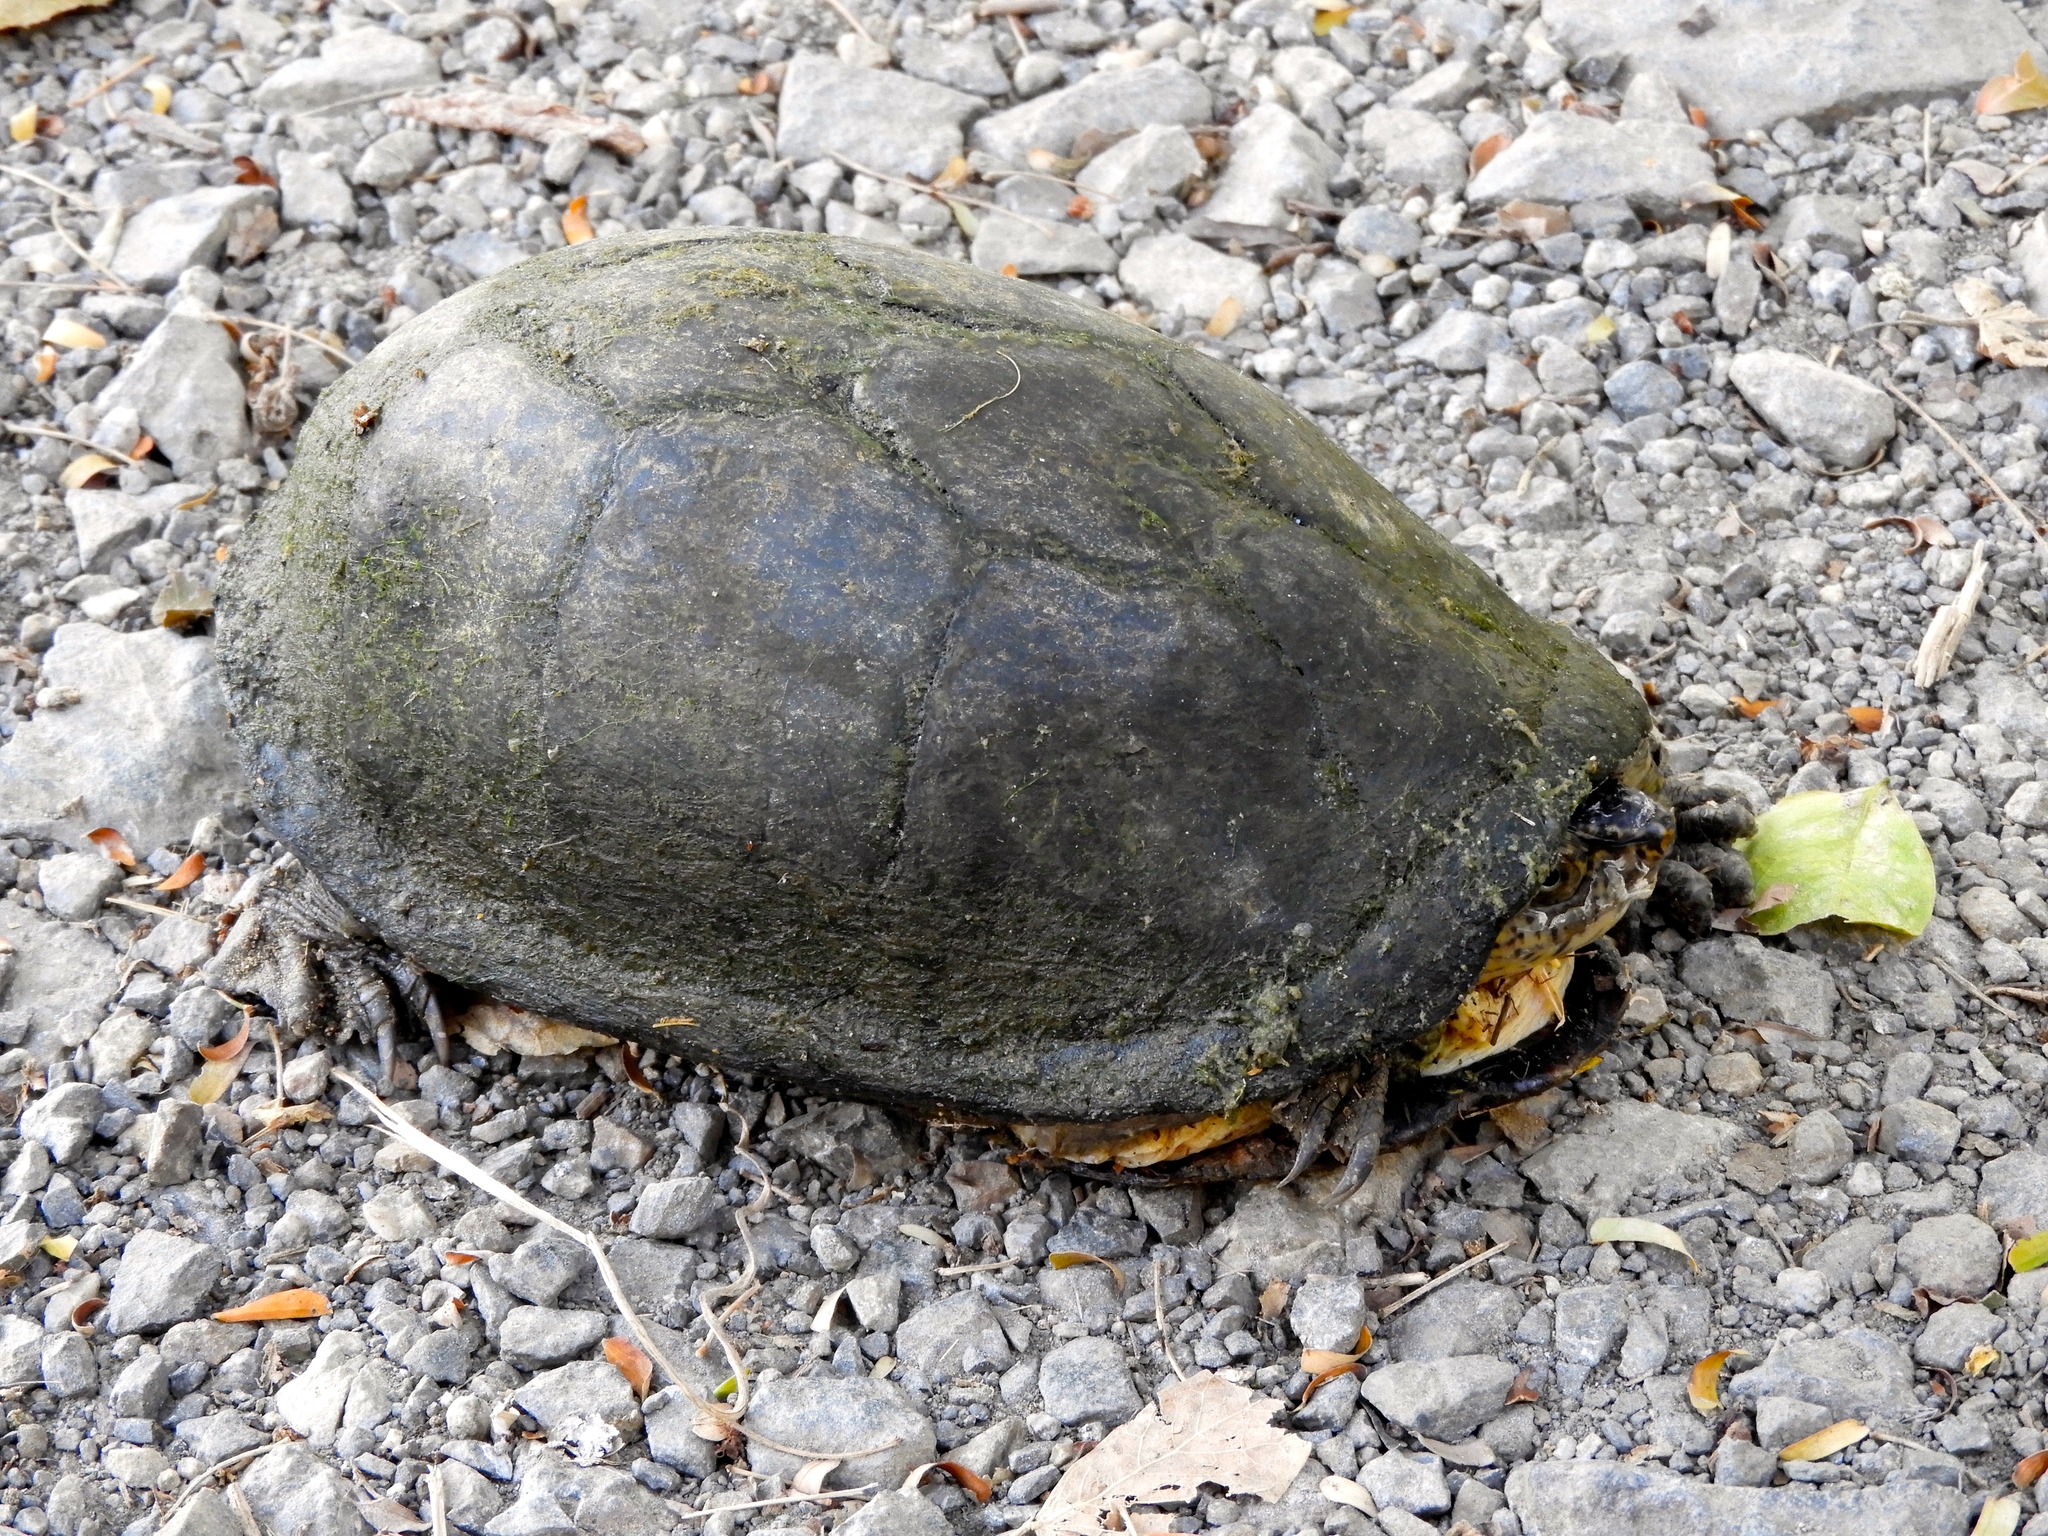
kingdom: Animalia
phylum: Chordata
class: Testudines
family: Kinosternidae
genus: Kinosternon
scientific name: Kinosternon integrum
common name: Mexican mud turtle
